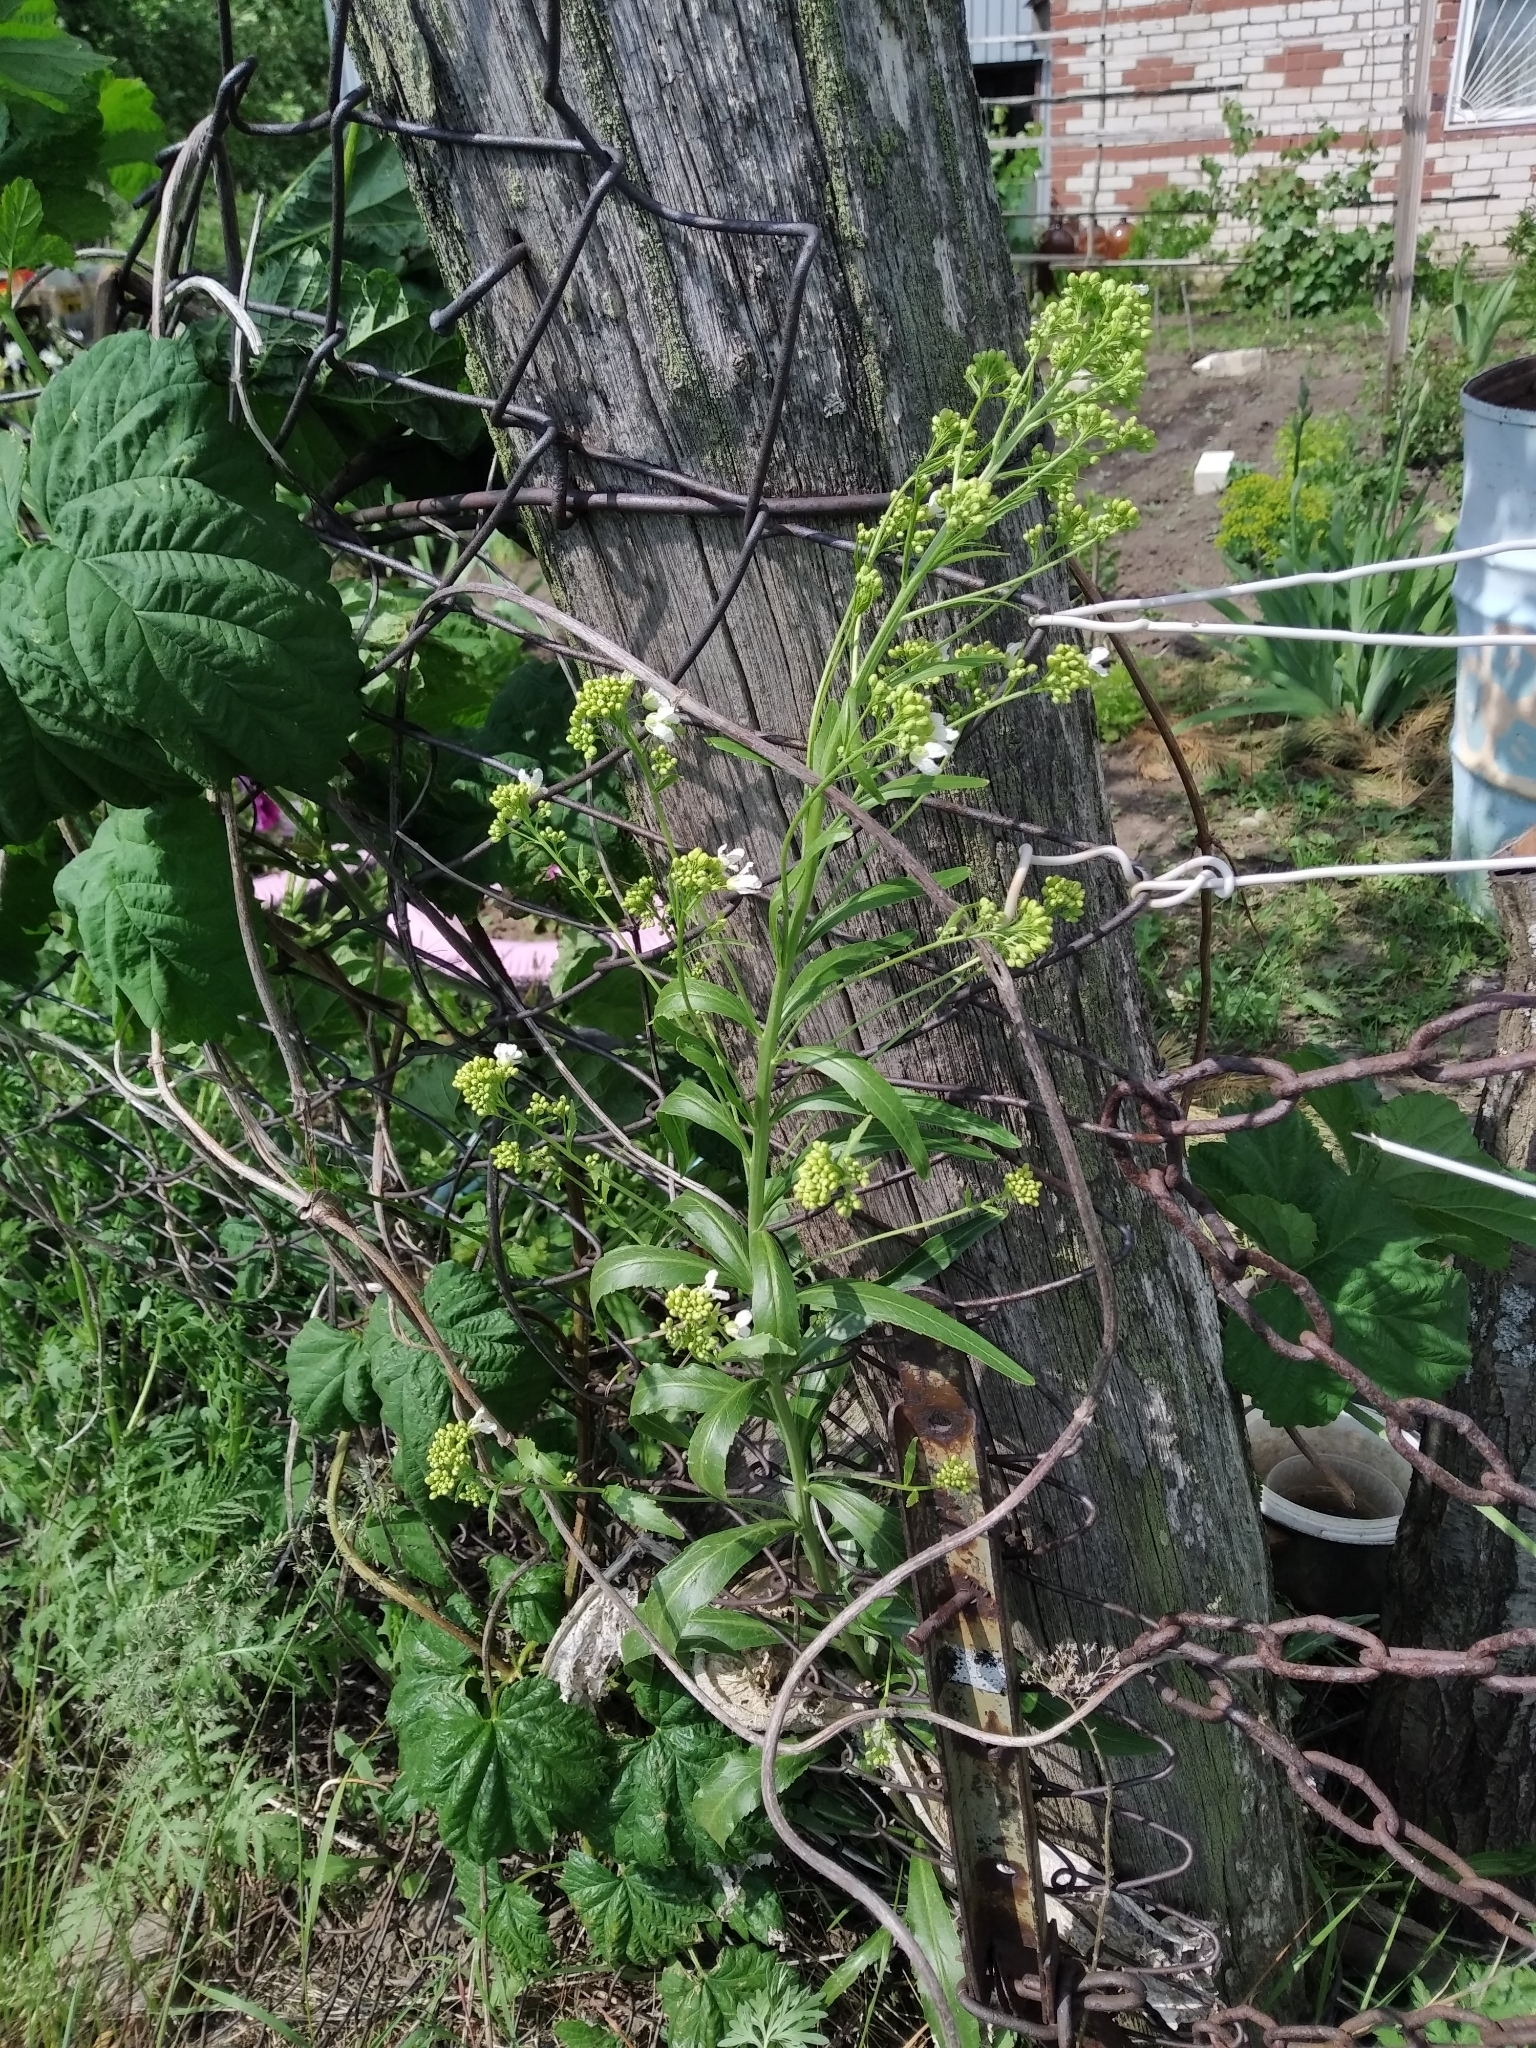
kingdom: Plantae
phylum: Tracheophyta
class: Magnoliopsida
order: Brassicales
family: Brassicaceae
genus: Armoracia
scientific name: Armoracia rusticana
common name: Horseradish
